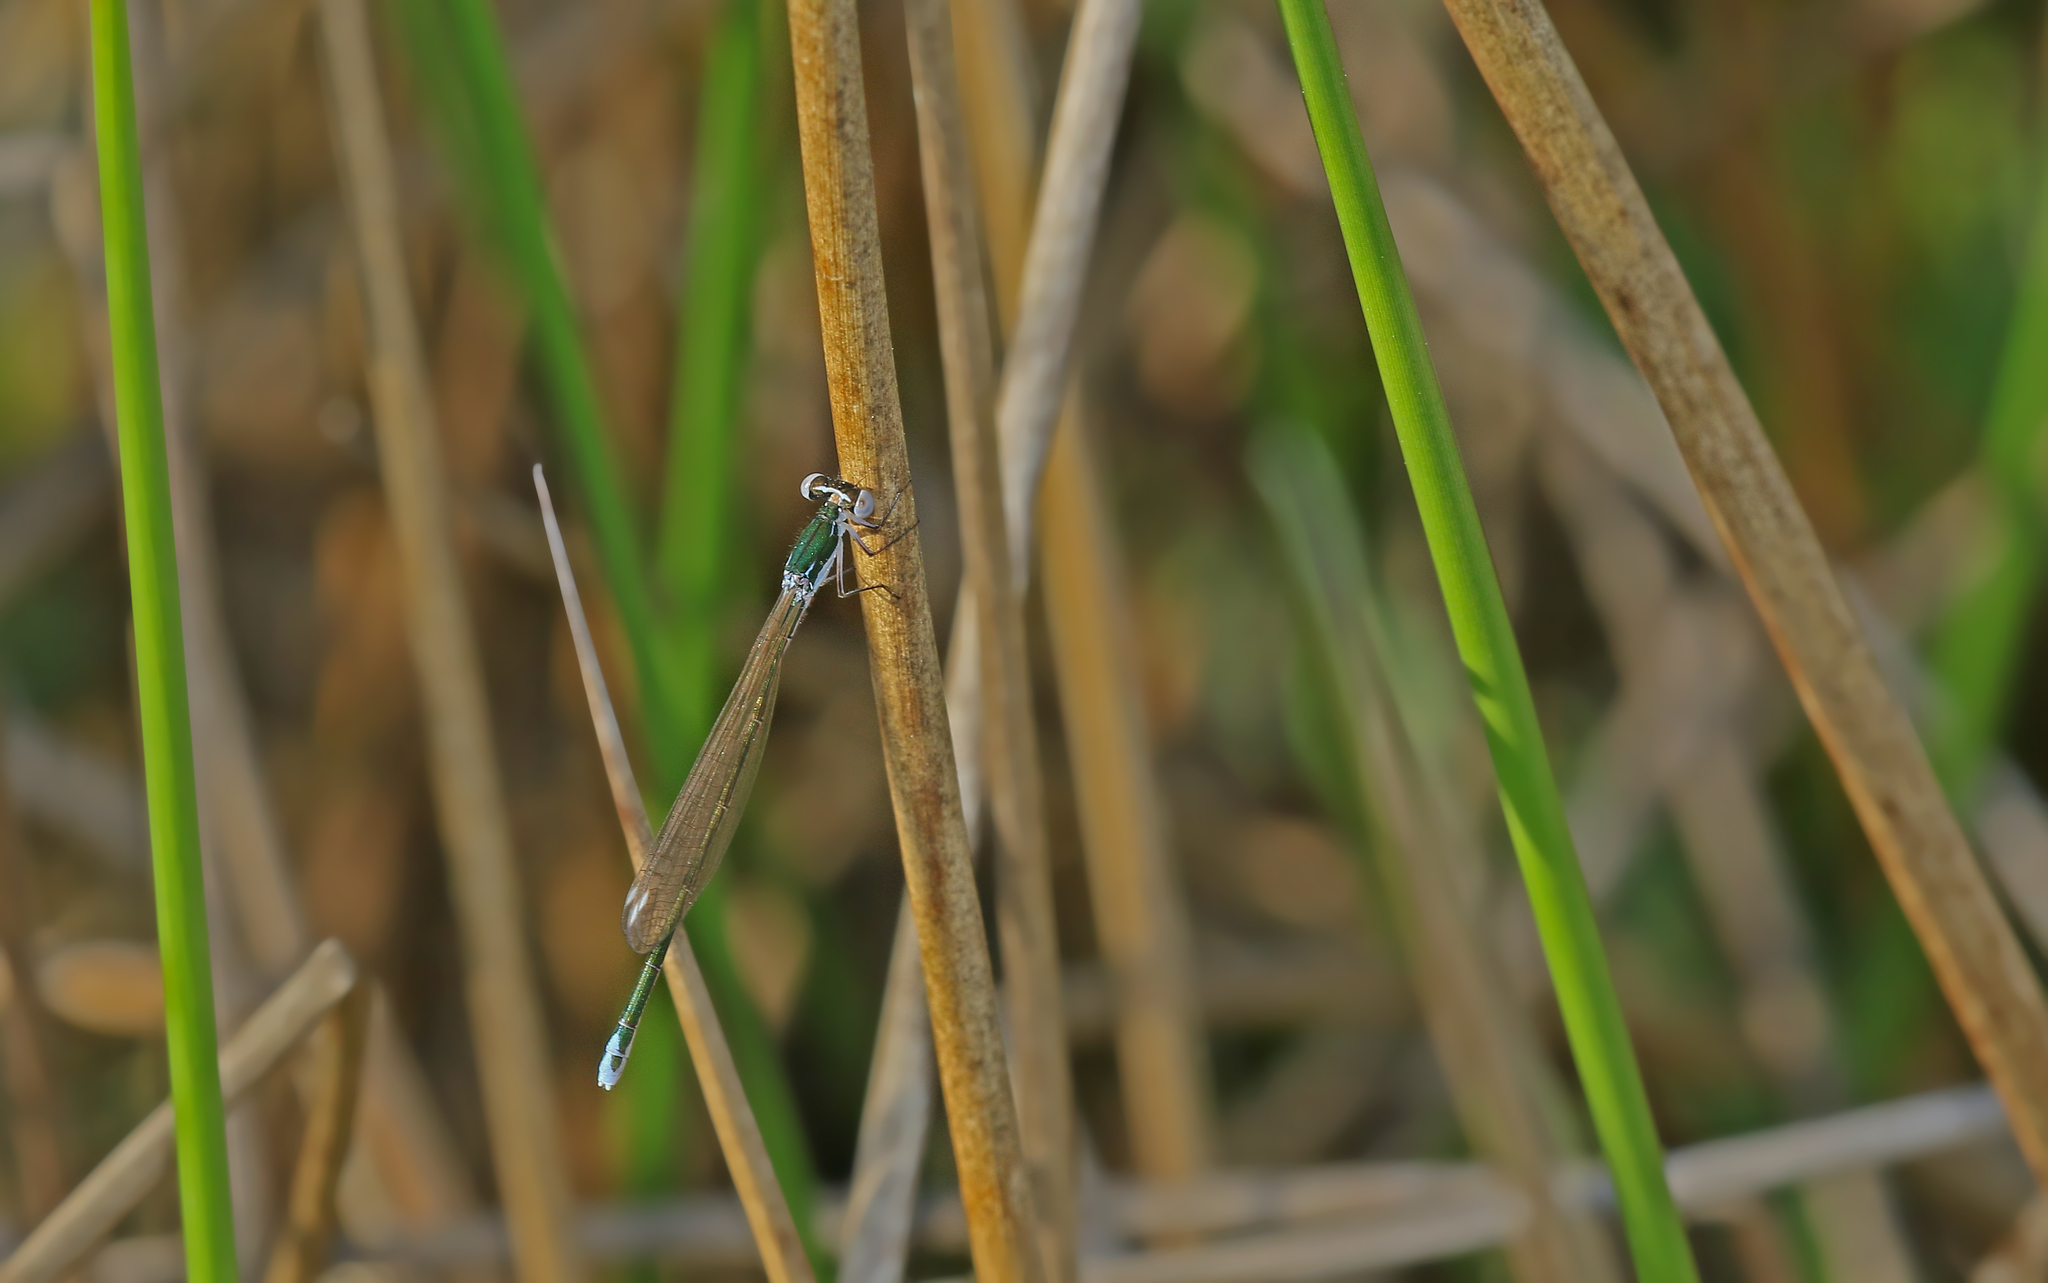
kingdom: Animalia
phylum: Arthropoda
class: Insecta
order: Odonata
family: Coenagrionidae
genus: Nehalennia
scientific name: Nehalennia speciosa
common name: Sedgling
